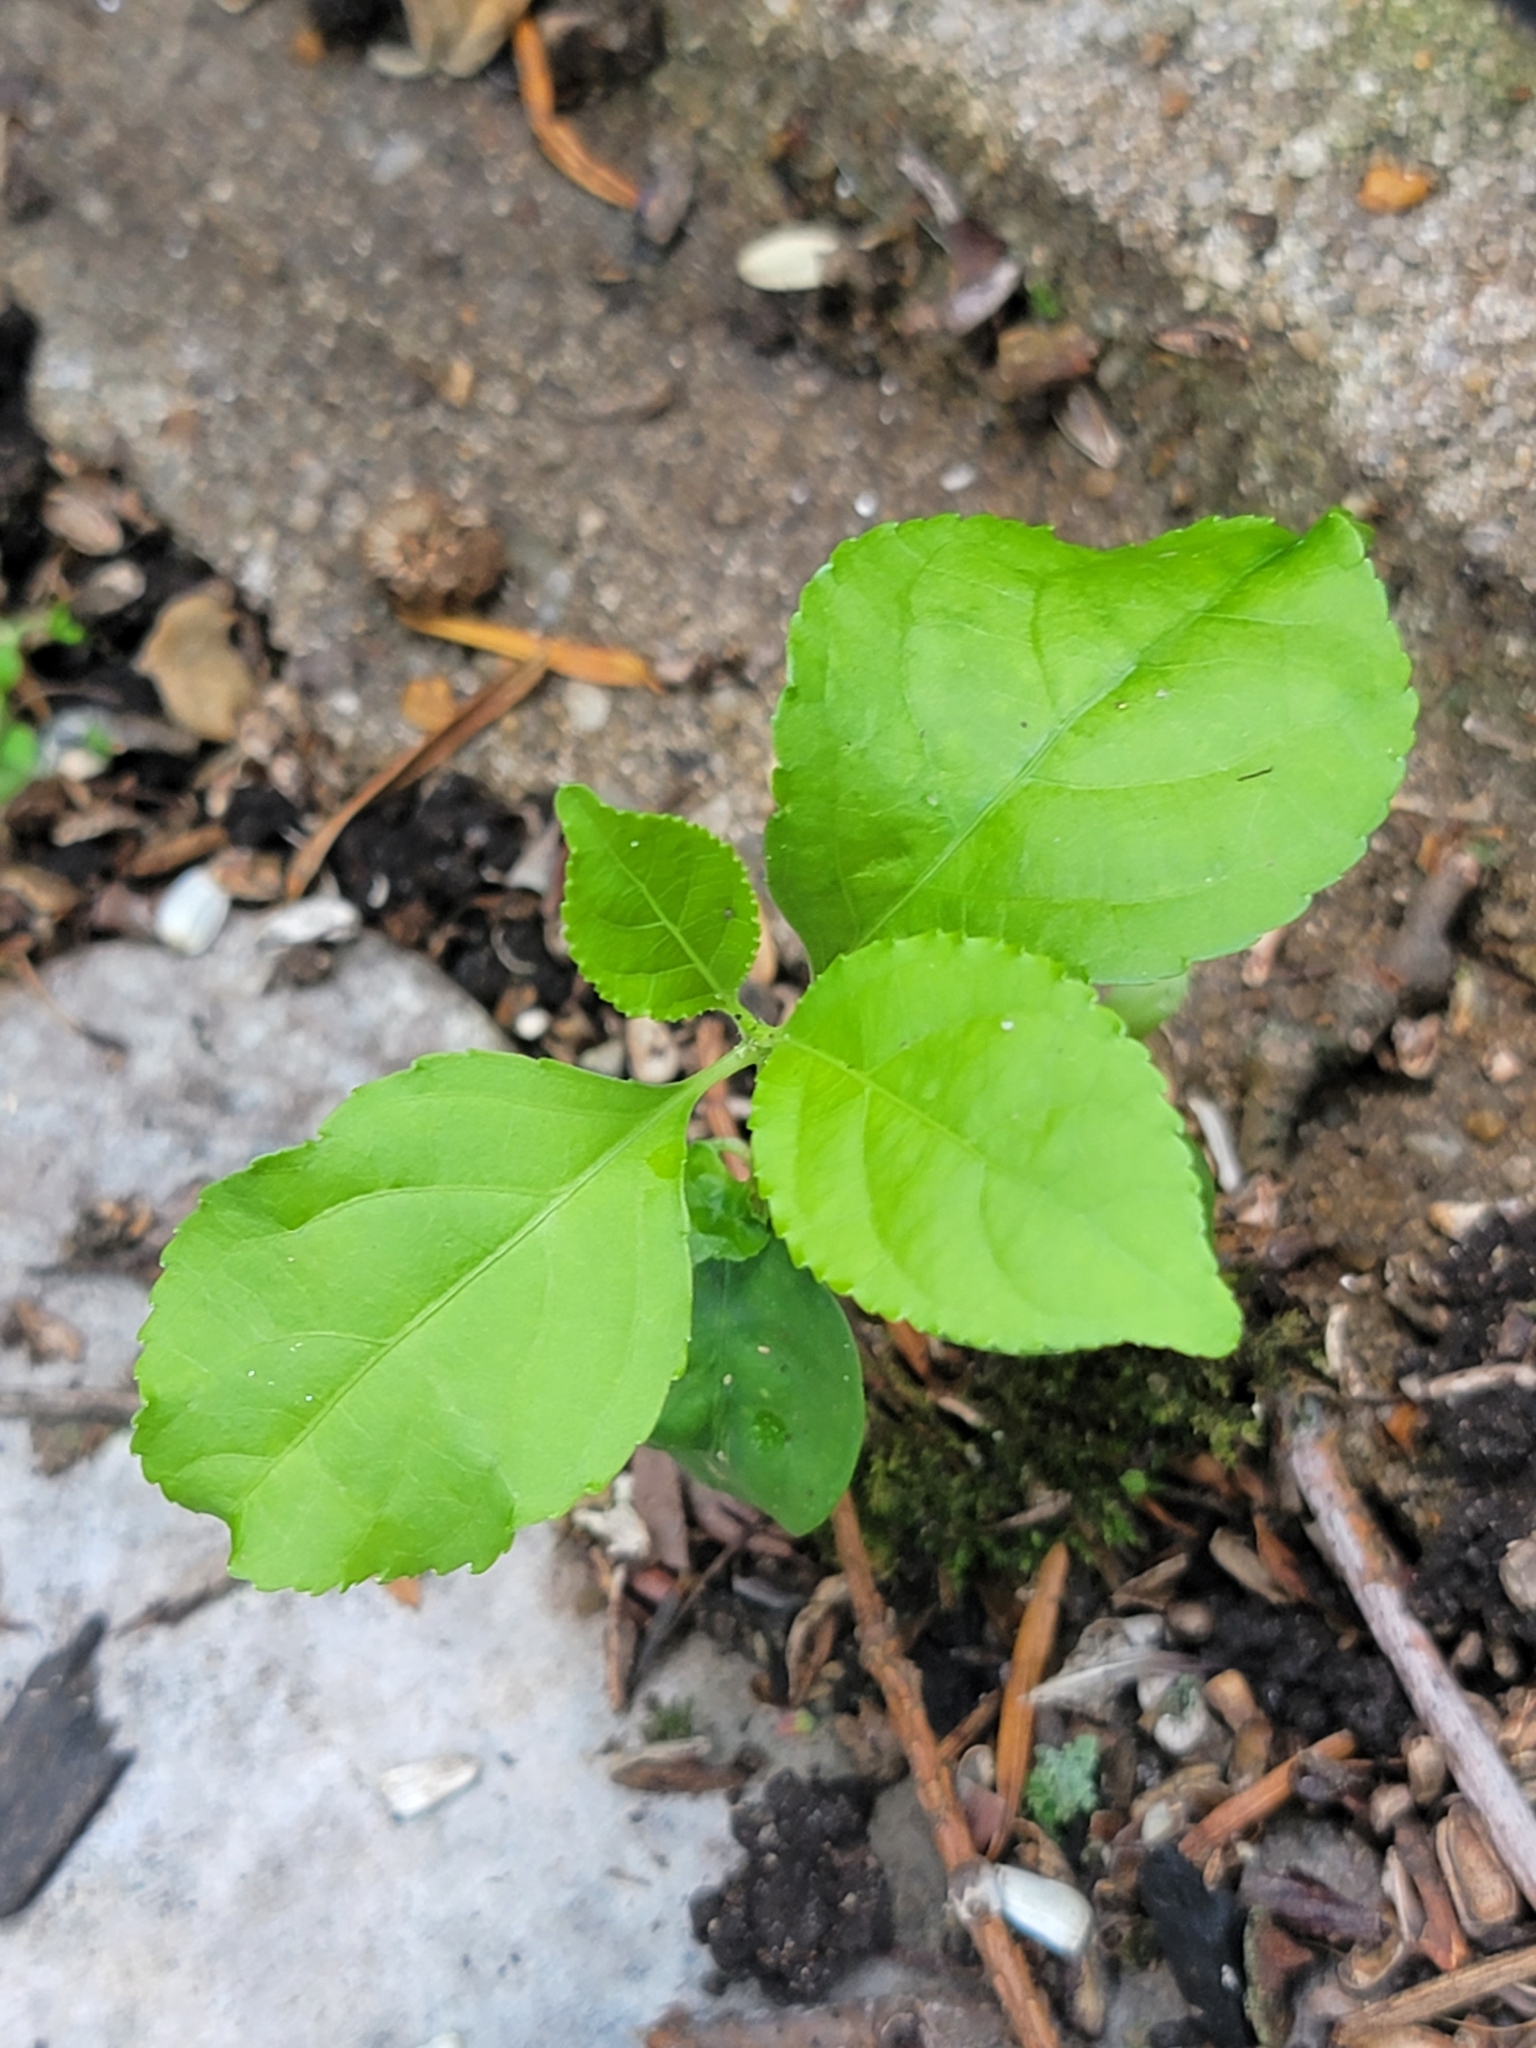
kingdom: Plantae
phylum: Tracheophyta
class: Magnoliopsida
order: Celastrales
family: Celastraceae
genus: Celastrus
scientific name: Celastrus orbiculatus
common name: Oriental bittersweet
